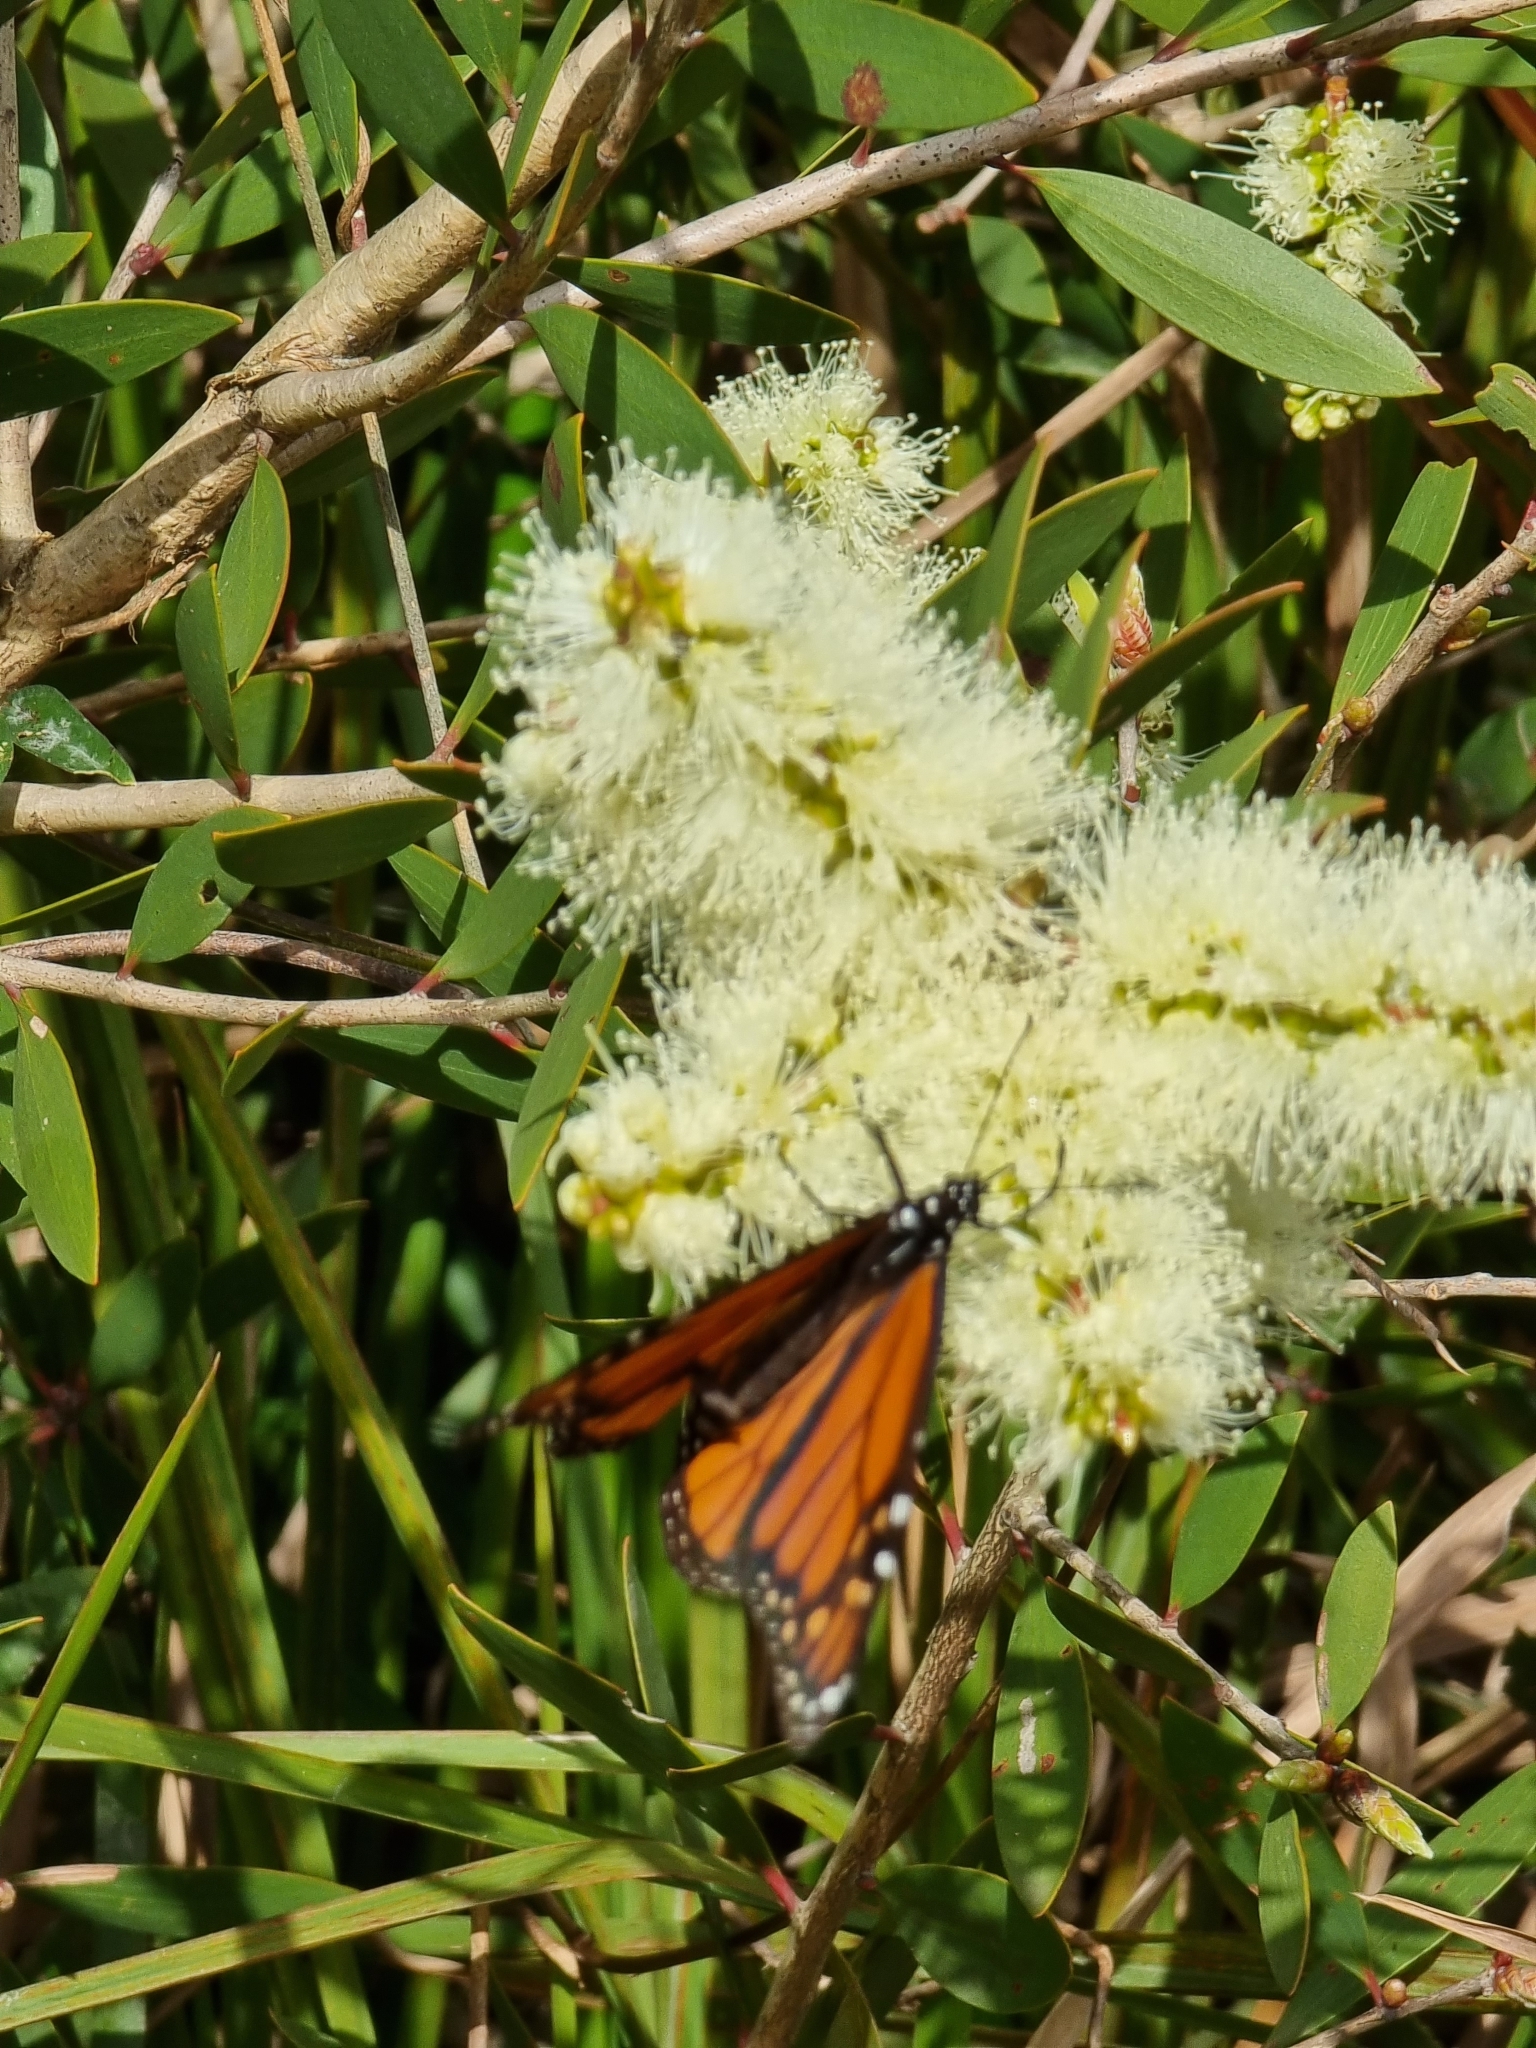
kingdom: Animalia
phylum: Arthropoda
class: Insecta
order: Lepidoptera
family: Nymphalidae
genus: Danaus
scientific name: Danaus plexippus
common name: Monarch
